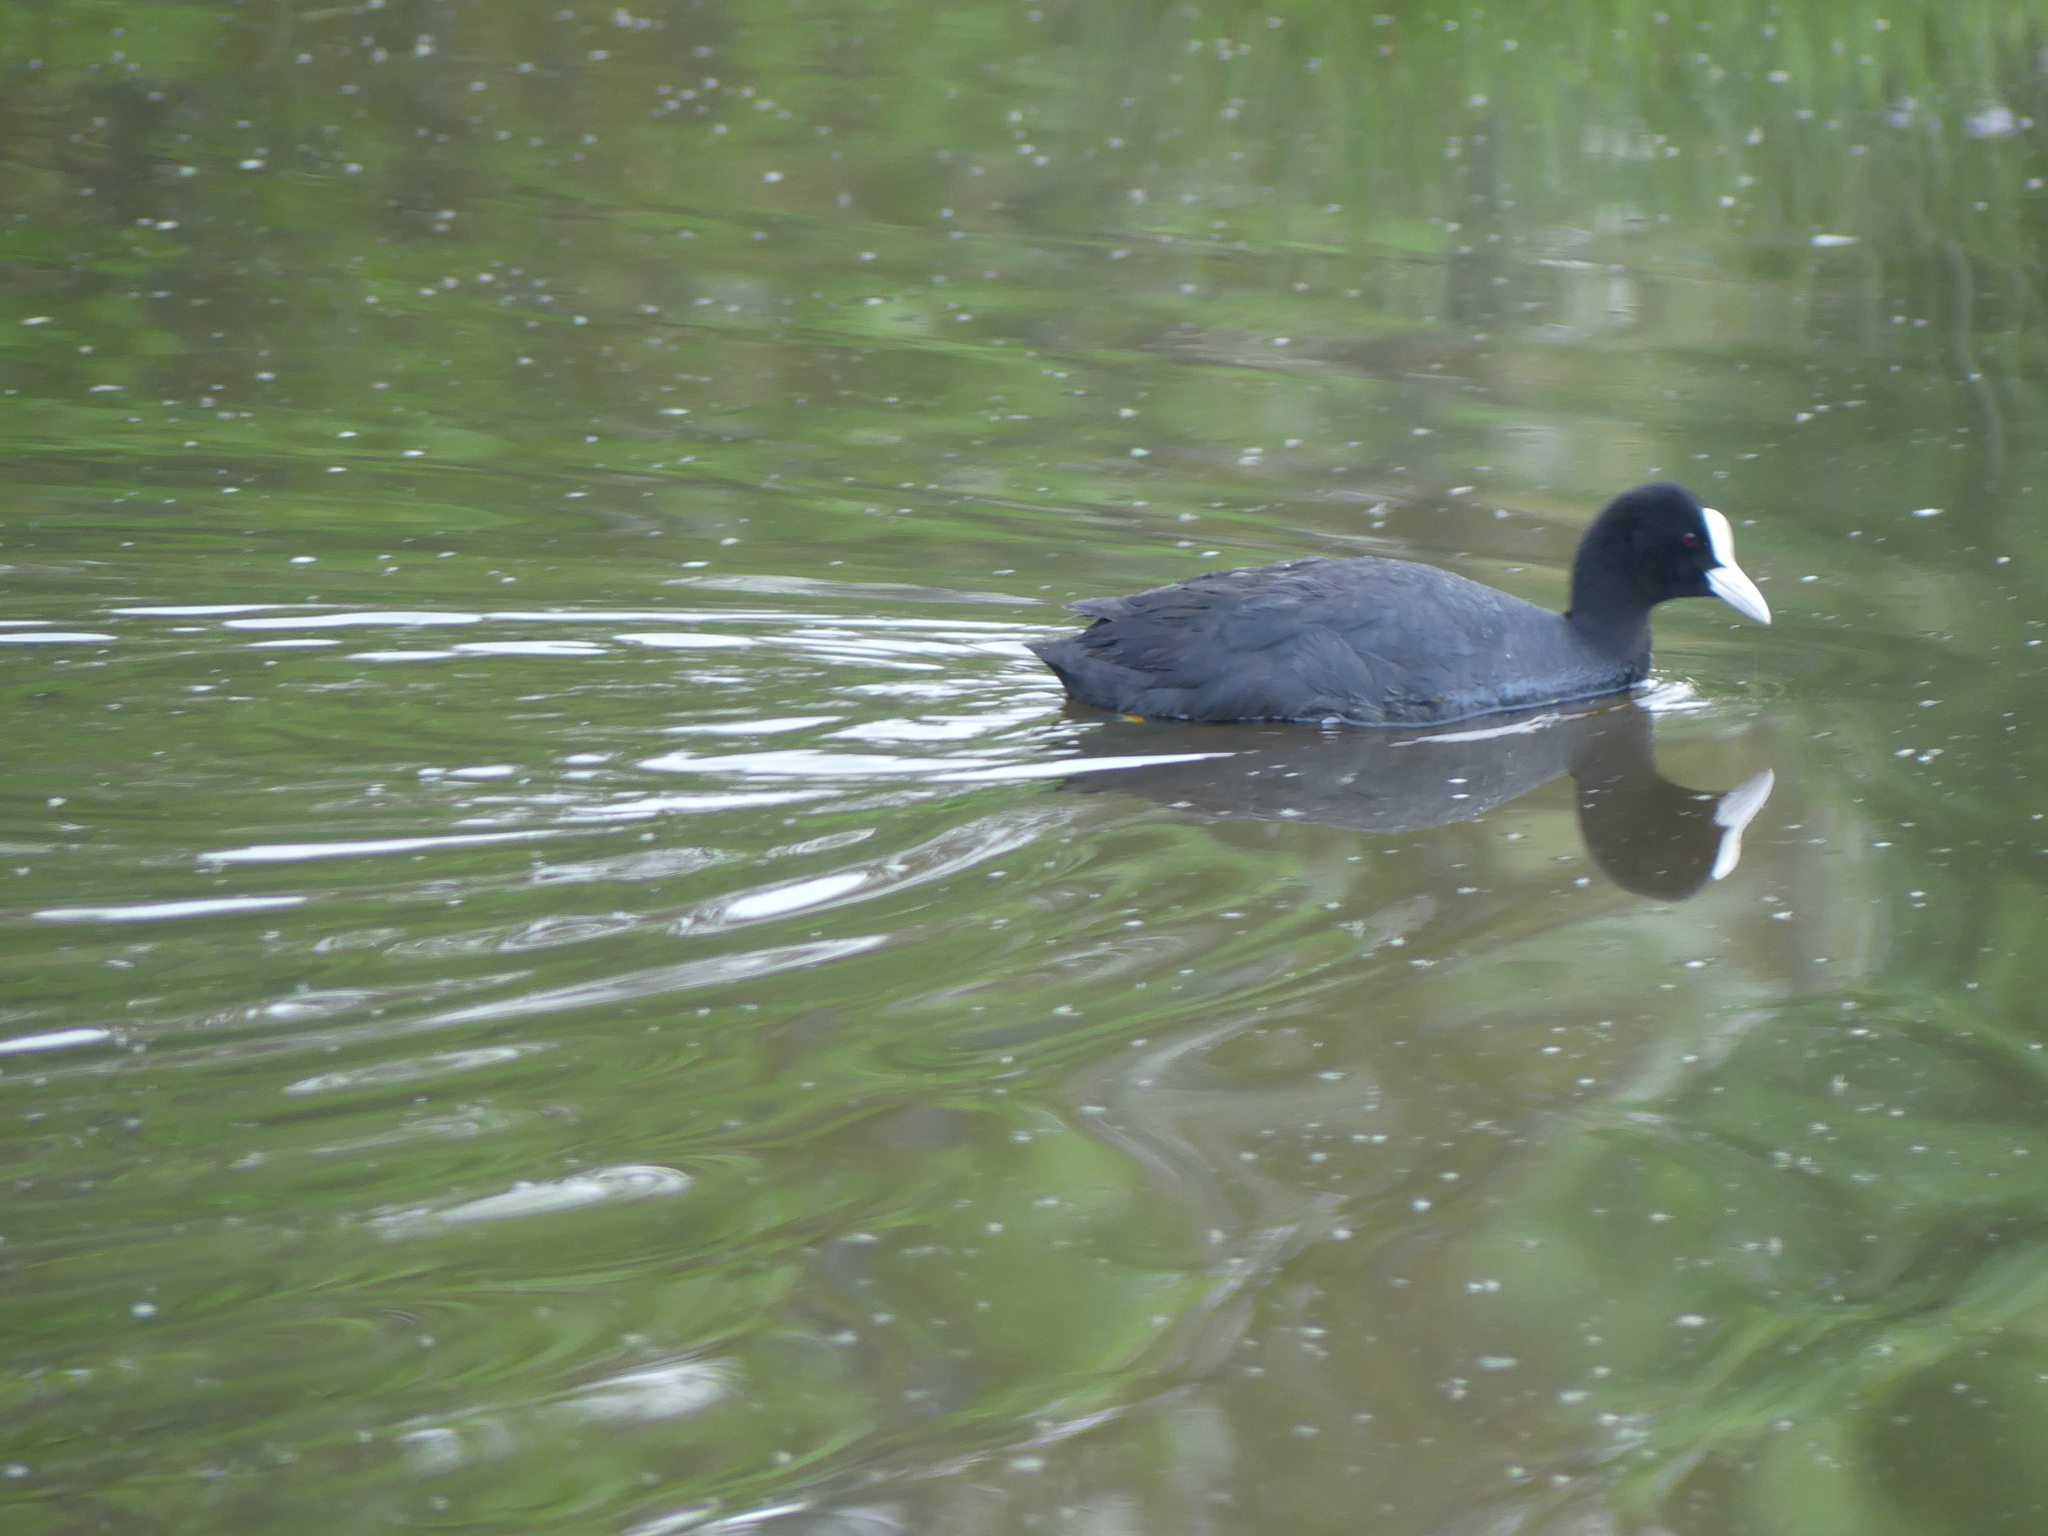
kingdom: Animalia
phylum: Chordata
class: Aves
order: Gruiformes
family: Rallidae
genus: Fulica
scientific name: Fulica atra
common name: Eurasian coot
